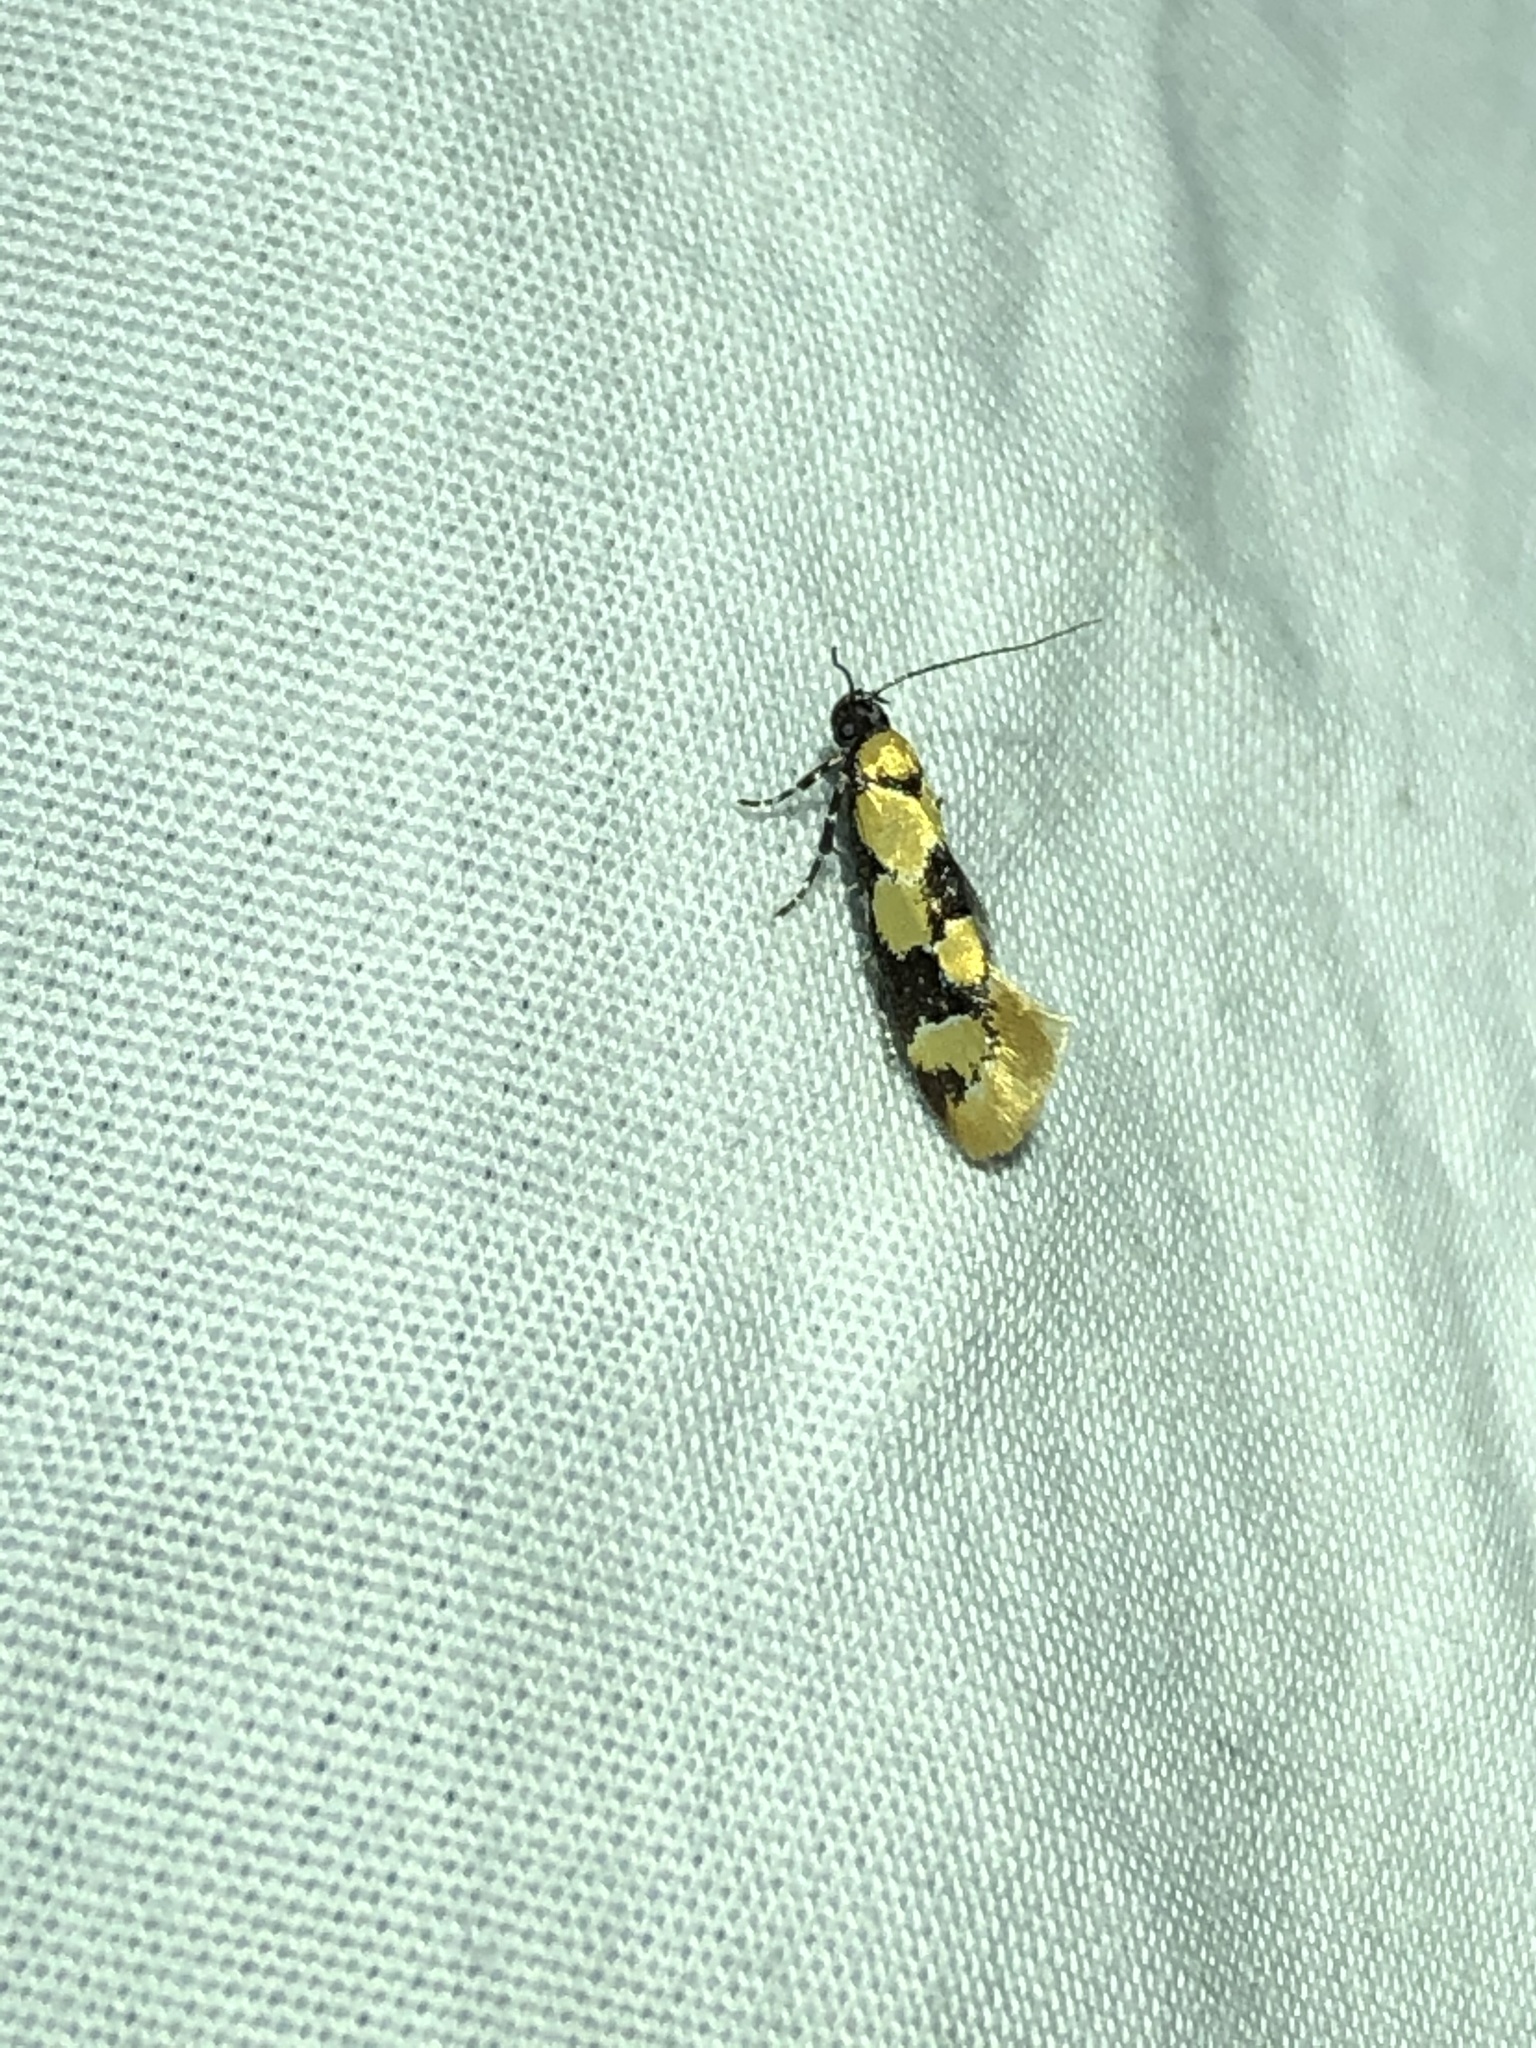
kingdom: Animalia
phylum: Arthropoda
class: Insecta
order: Lepidoptera
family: Oecophoridae
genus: Decantha
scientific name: Decantha stonda
